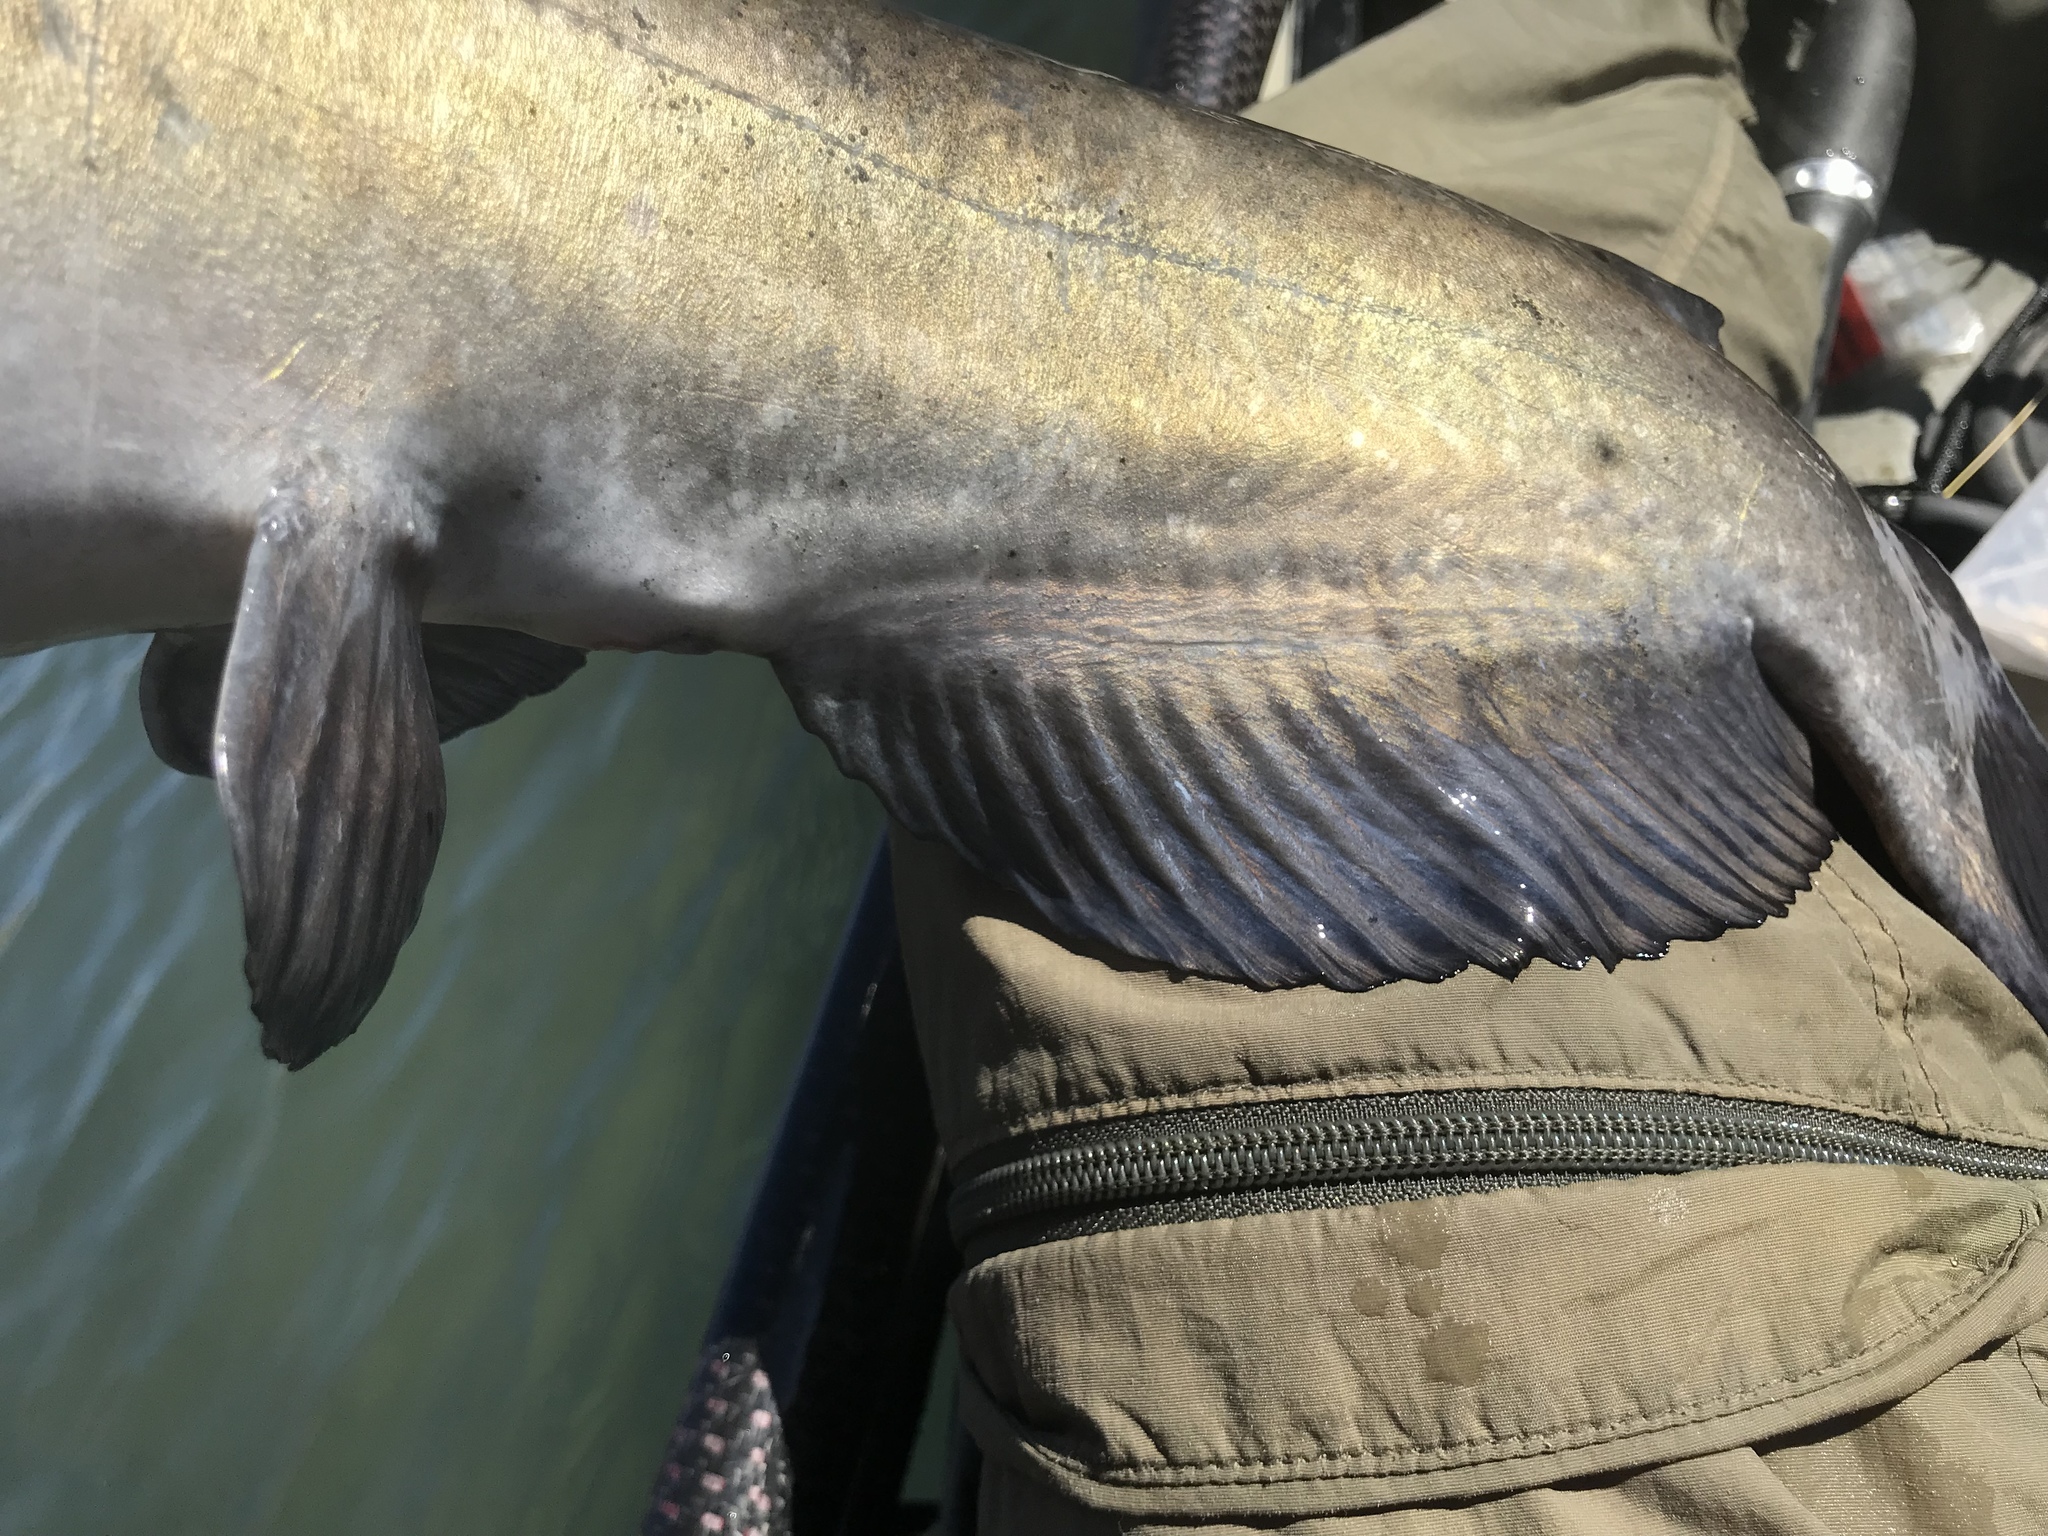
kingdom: Animalia
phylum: Chordata
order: Siluriformes
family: Ictaluridae
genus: Ictalurus
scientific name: Ictalurus punctatus
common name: Channel catfish
